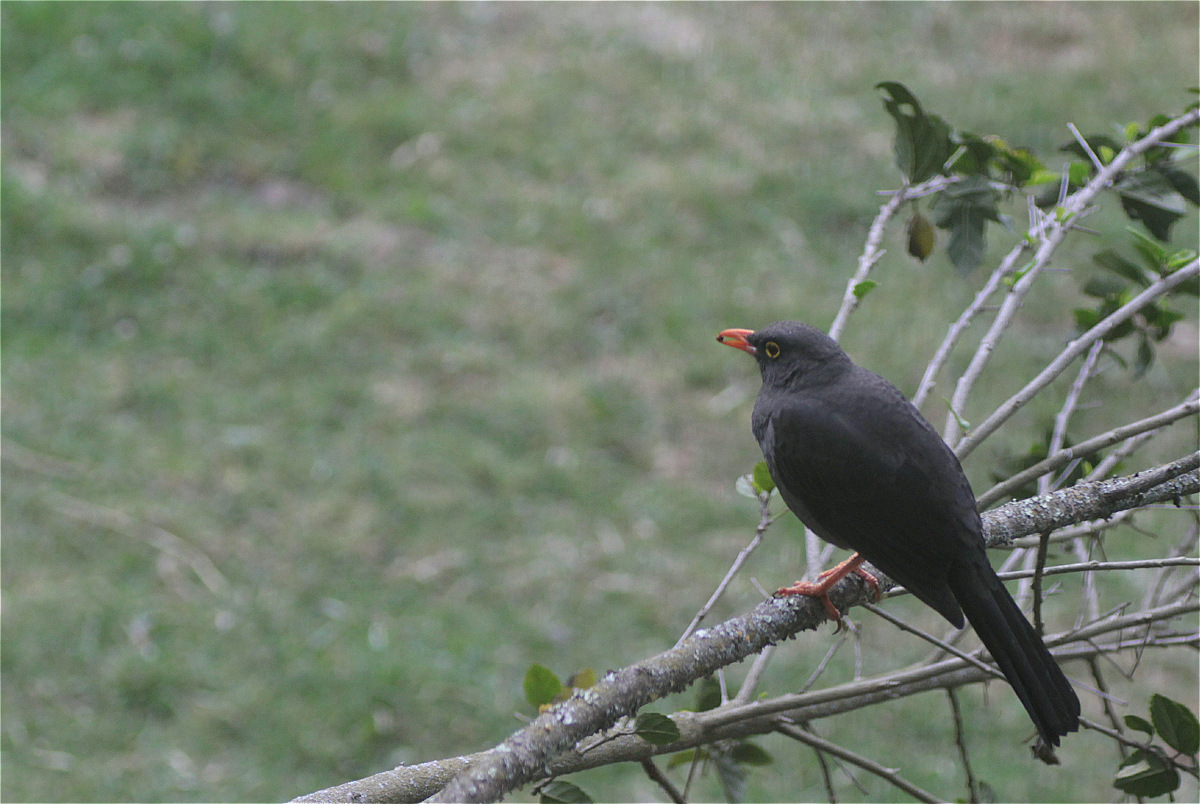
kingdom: Animalia
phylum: Chordata
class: Aves
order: Passeriformes
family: Turdidae
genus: Turdus
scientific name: Turdus fuscater
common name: Great thrush
